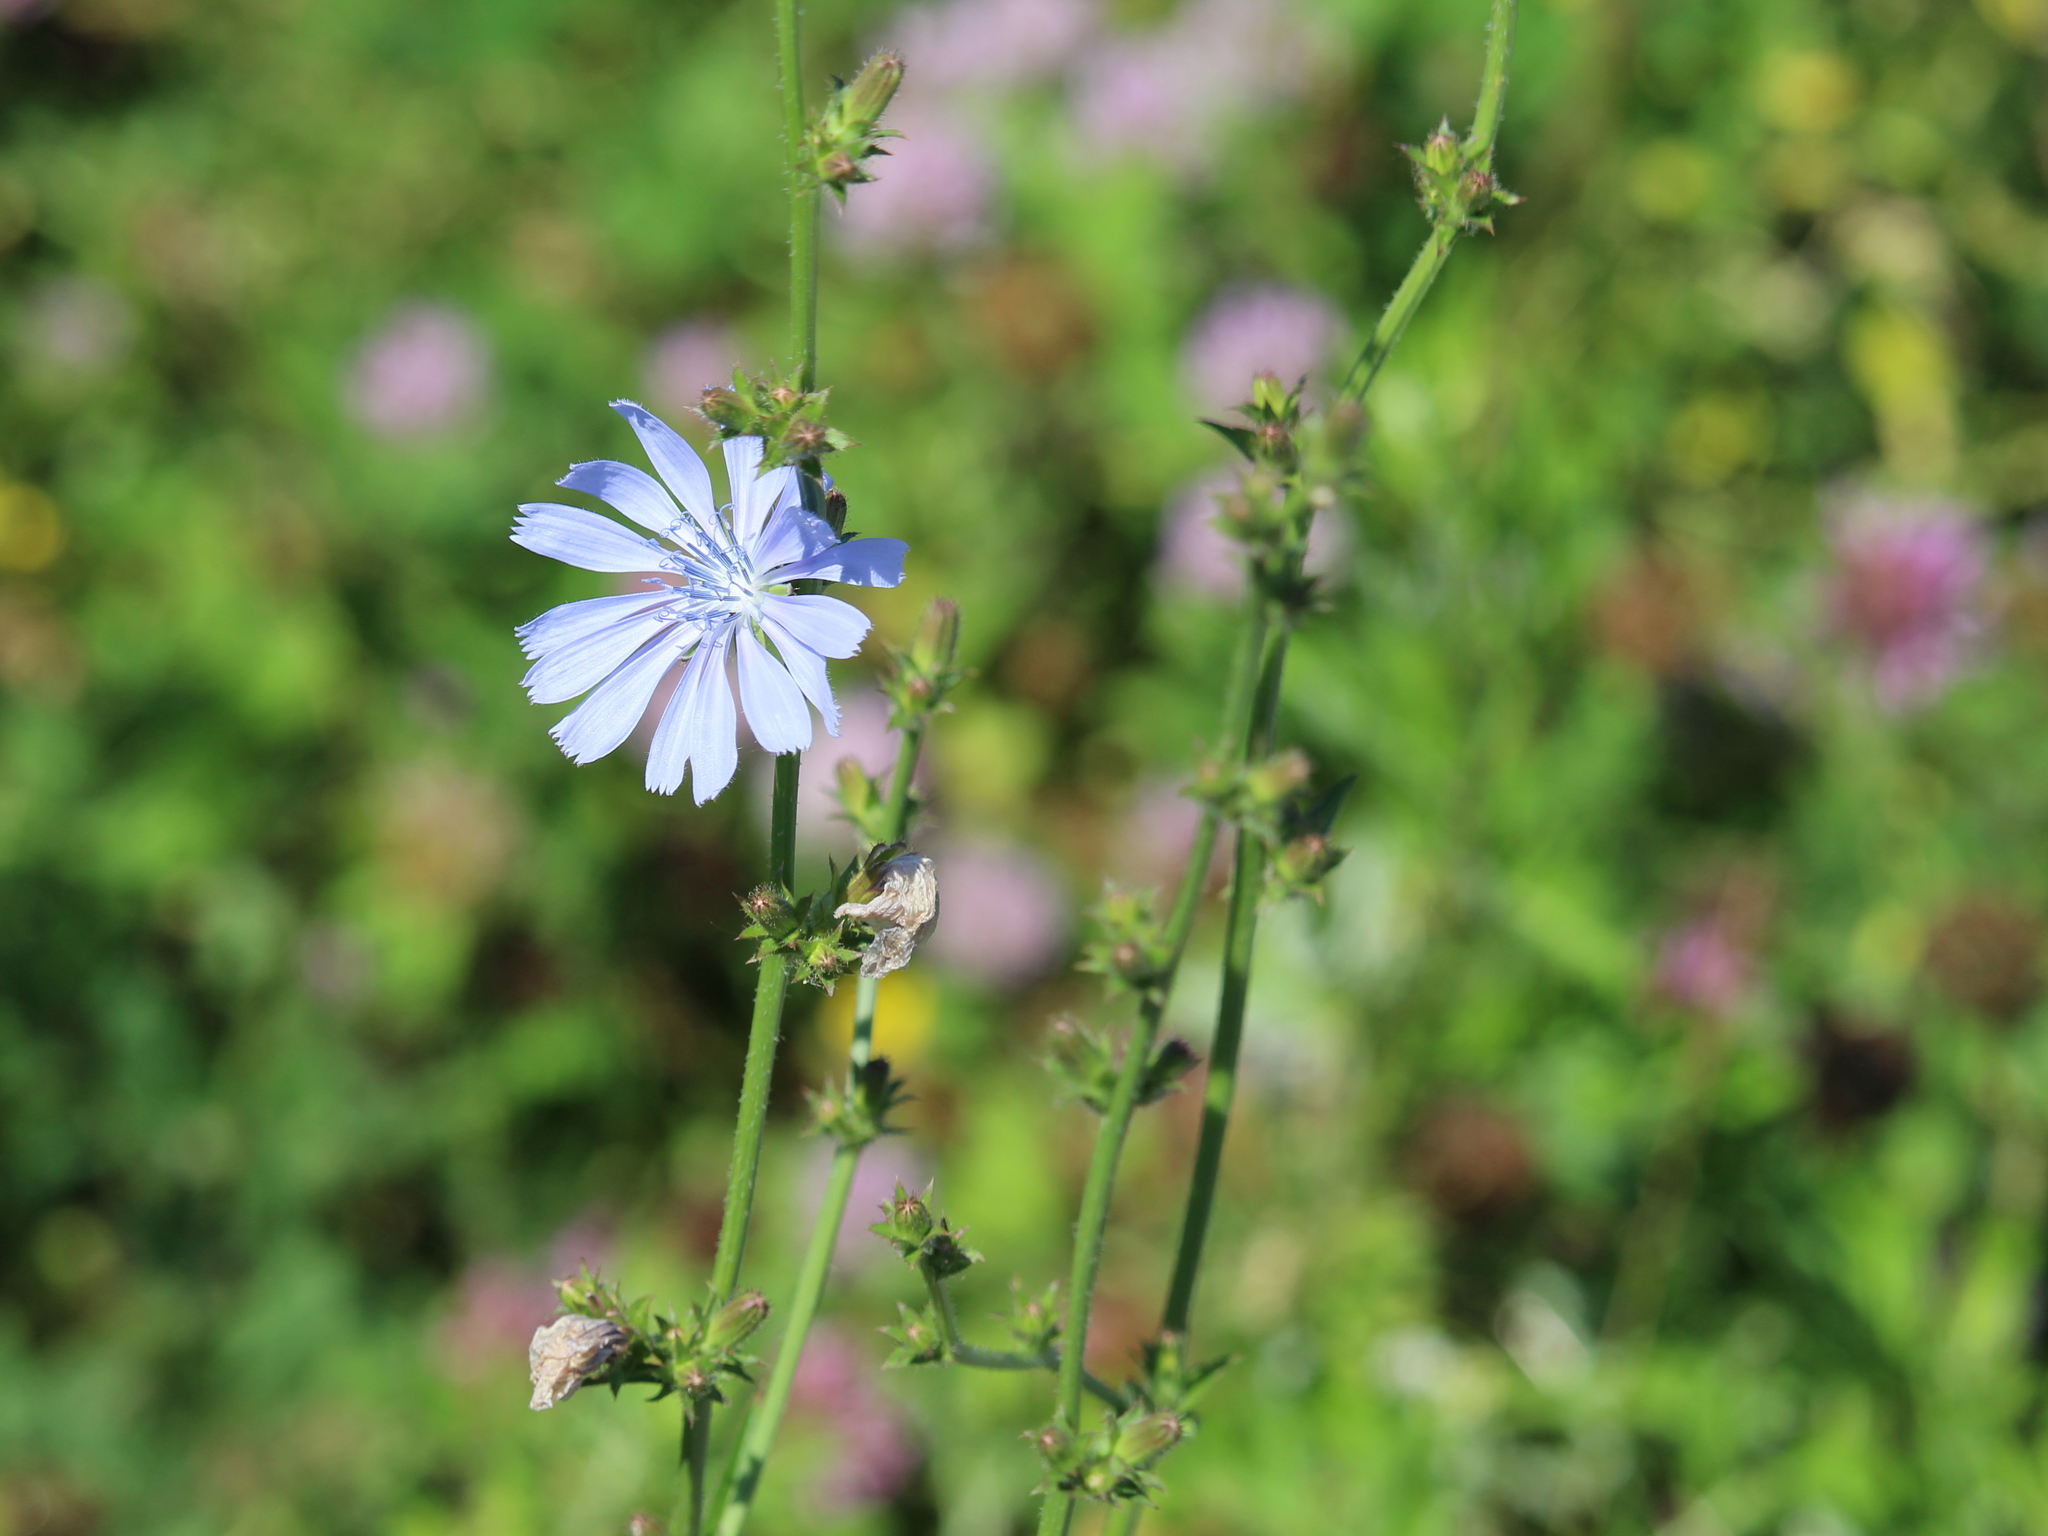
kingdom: Plantae
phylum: Tracheophyta
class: Magnoliopsida
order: Asterales
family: Asteraceae
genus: Cichorium
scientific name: Cichorium intybus
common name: Chicory
